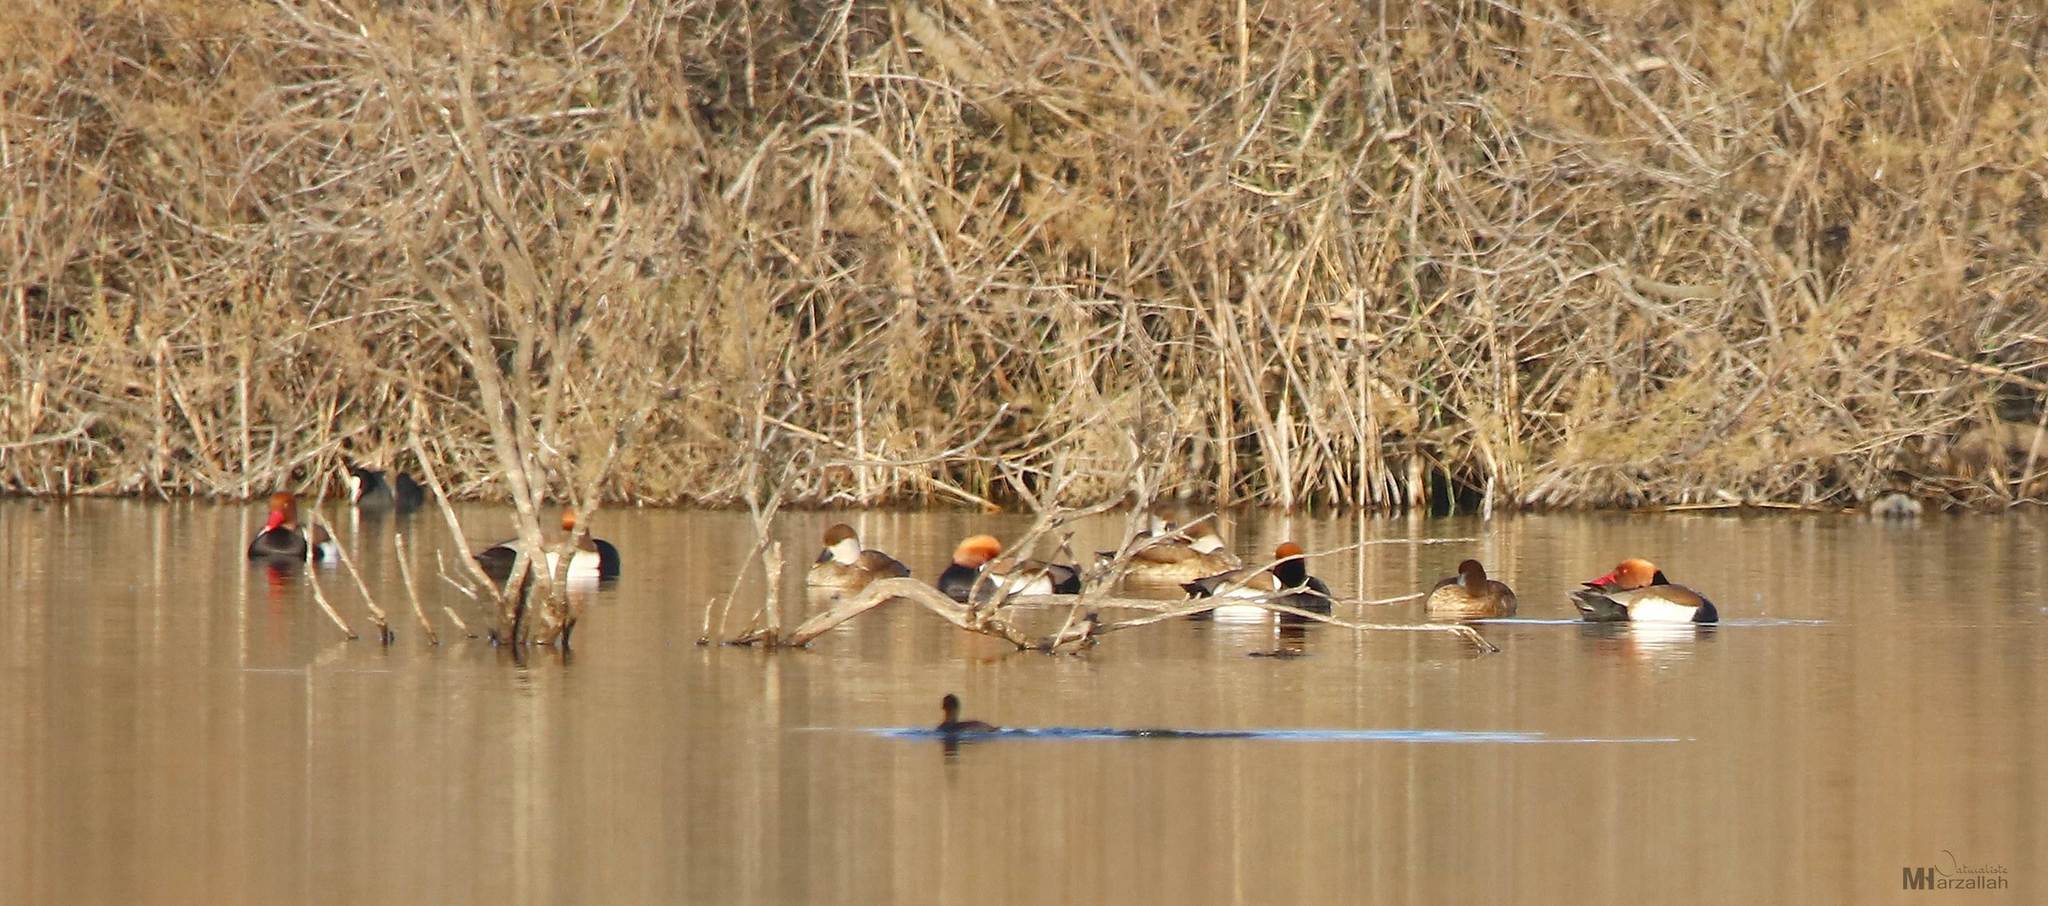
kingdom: Animalia
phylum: Chordata
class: Aves
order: Anseriformes
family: Anatidae
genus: Netta
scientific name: Netta rufina
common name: Red-crested pochard
